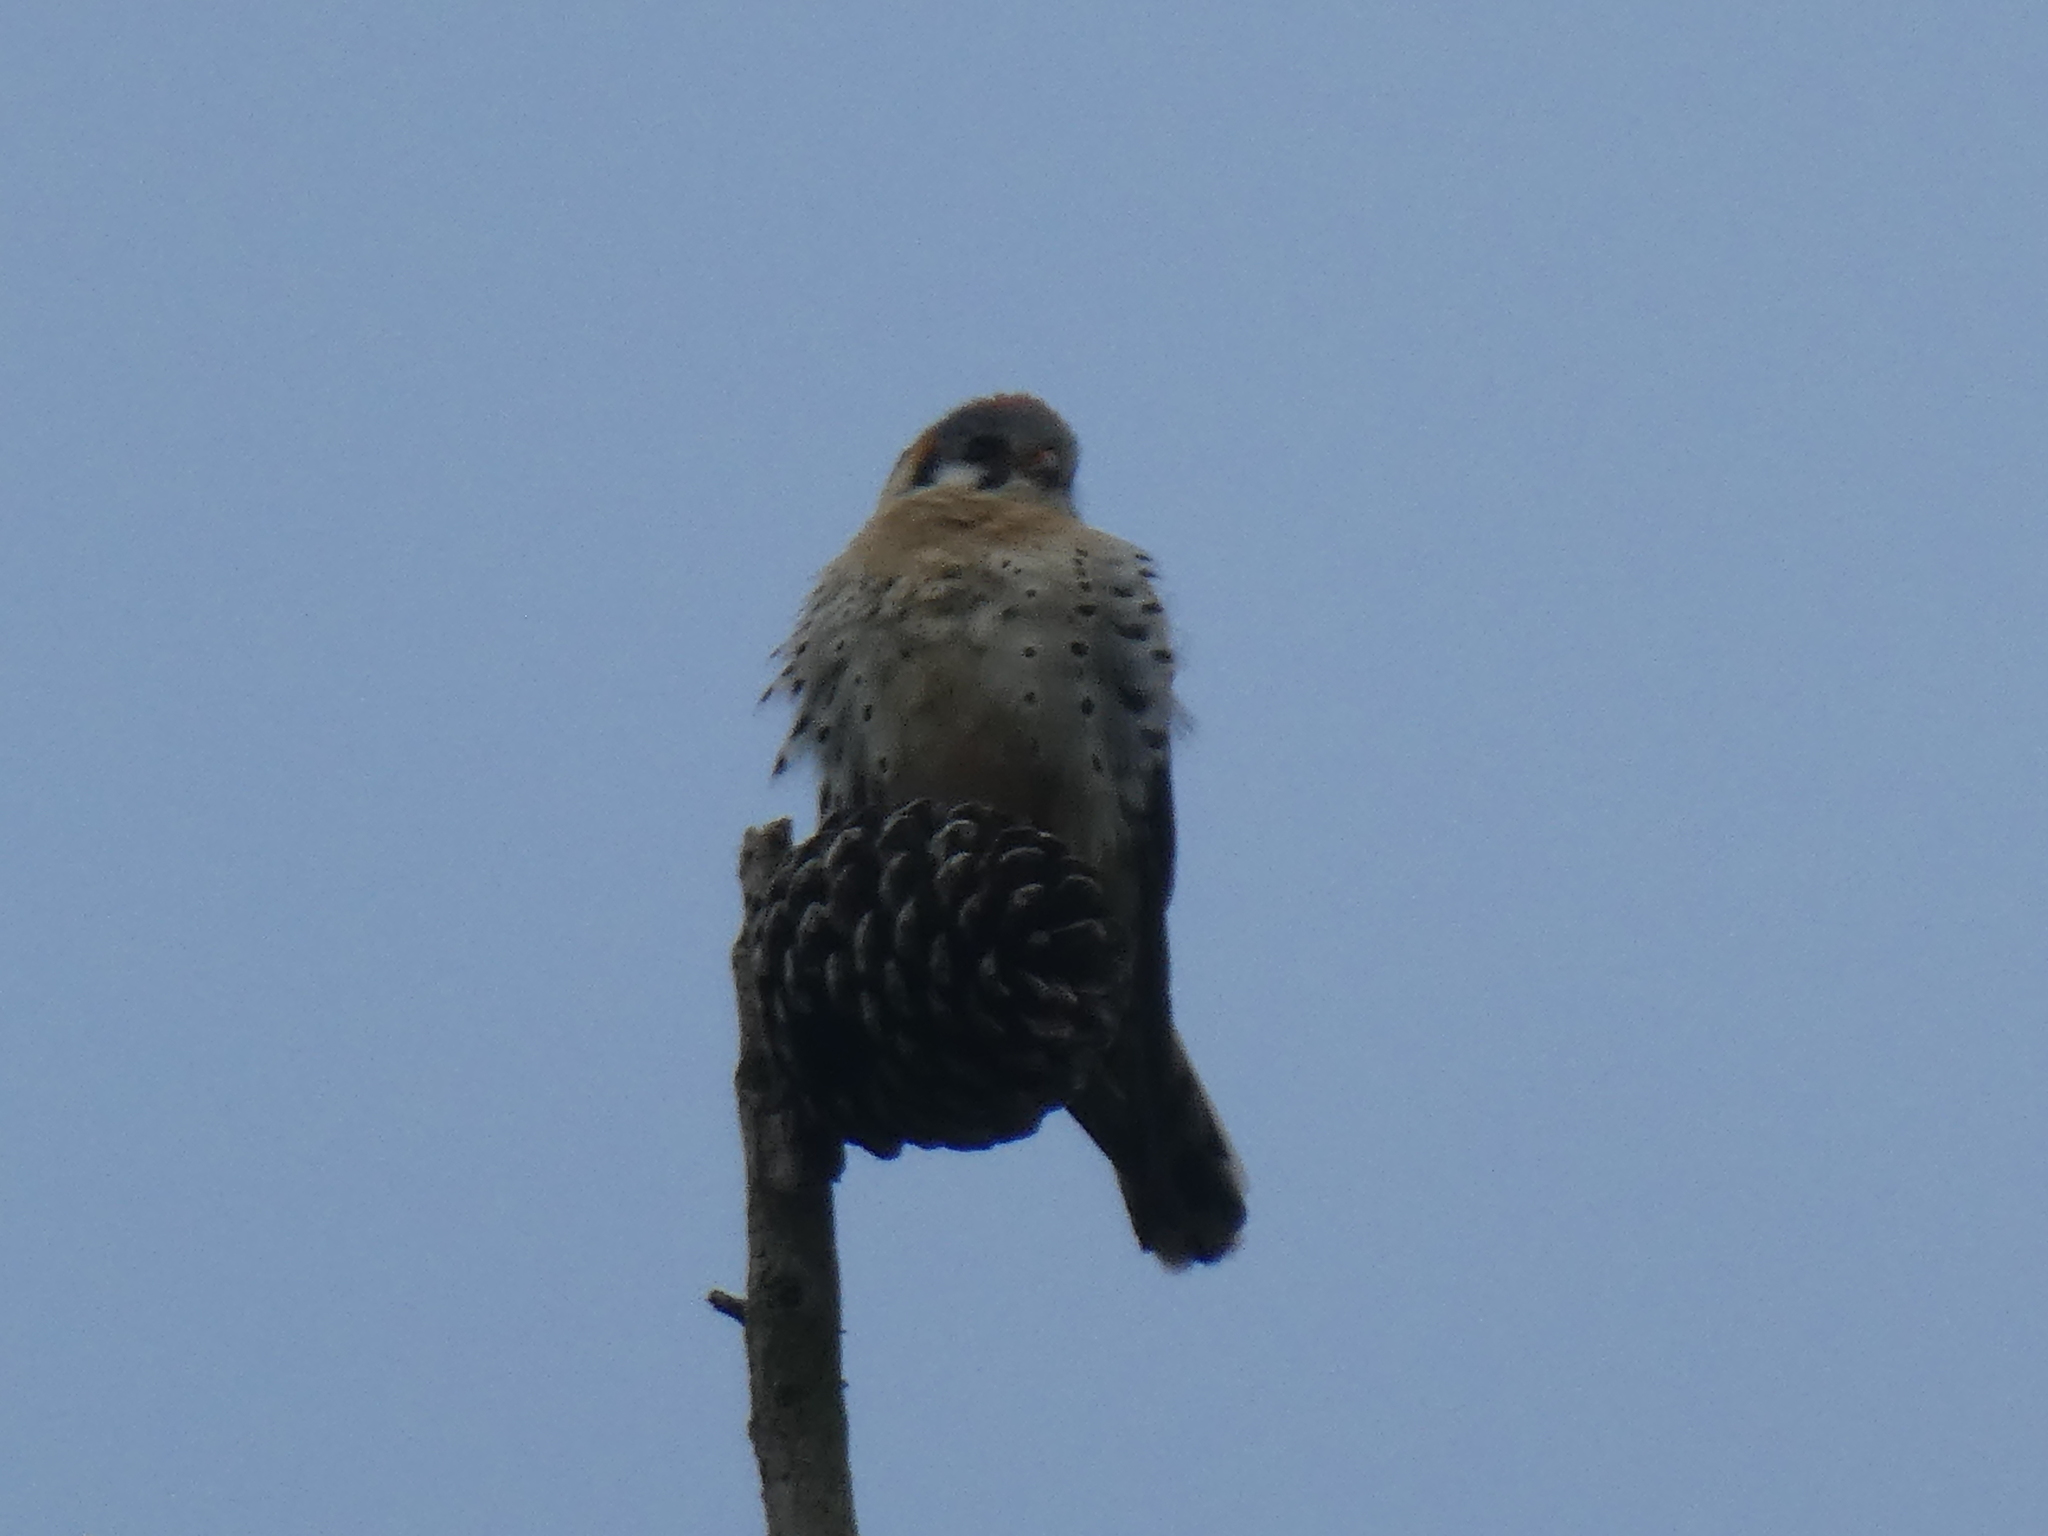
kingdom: Animalia
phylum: Chordata
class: Aves
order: Falconiformes
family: Falconidae
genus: Falco
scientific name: Falco sparverius
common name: American kestrel
